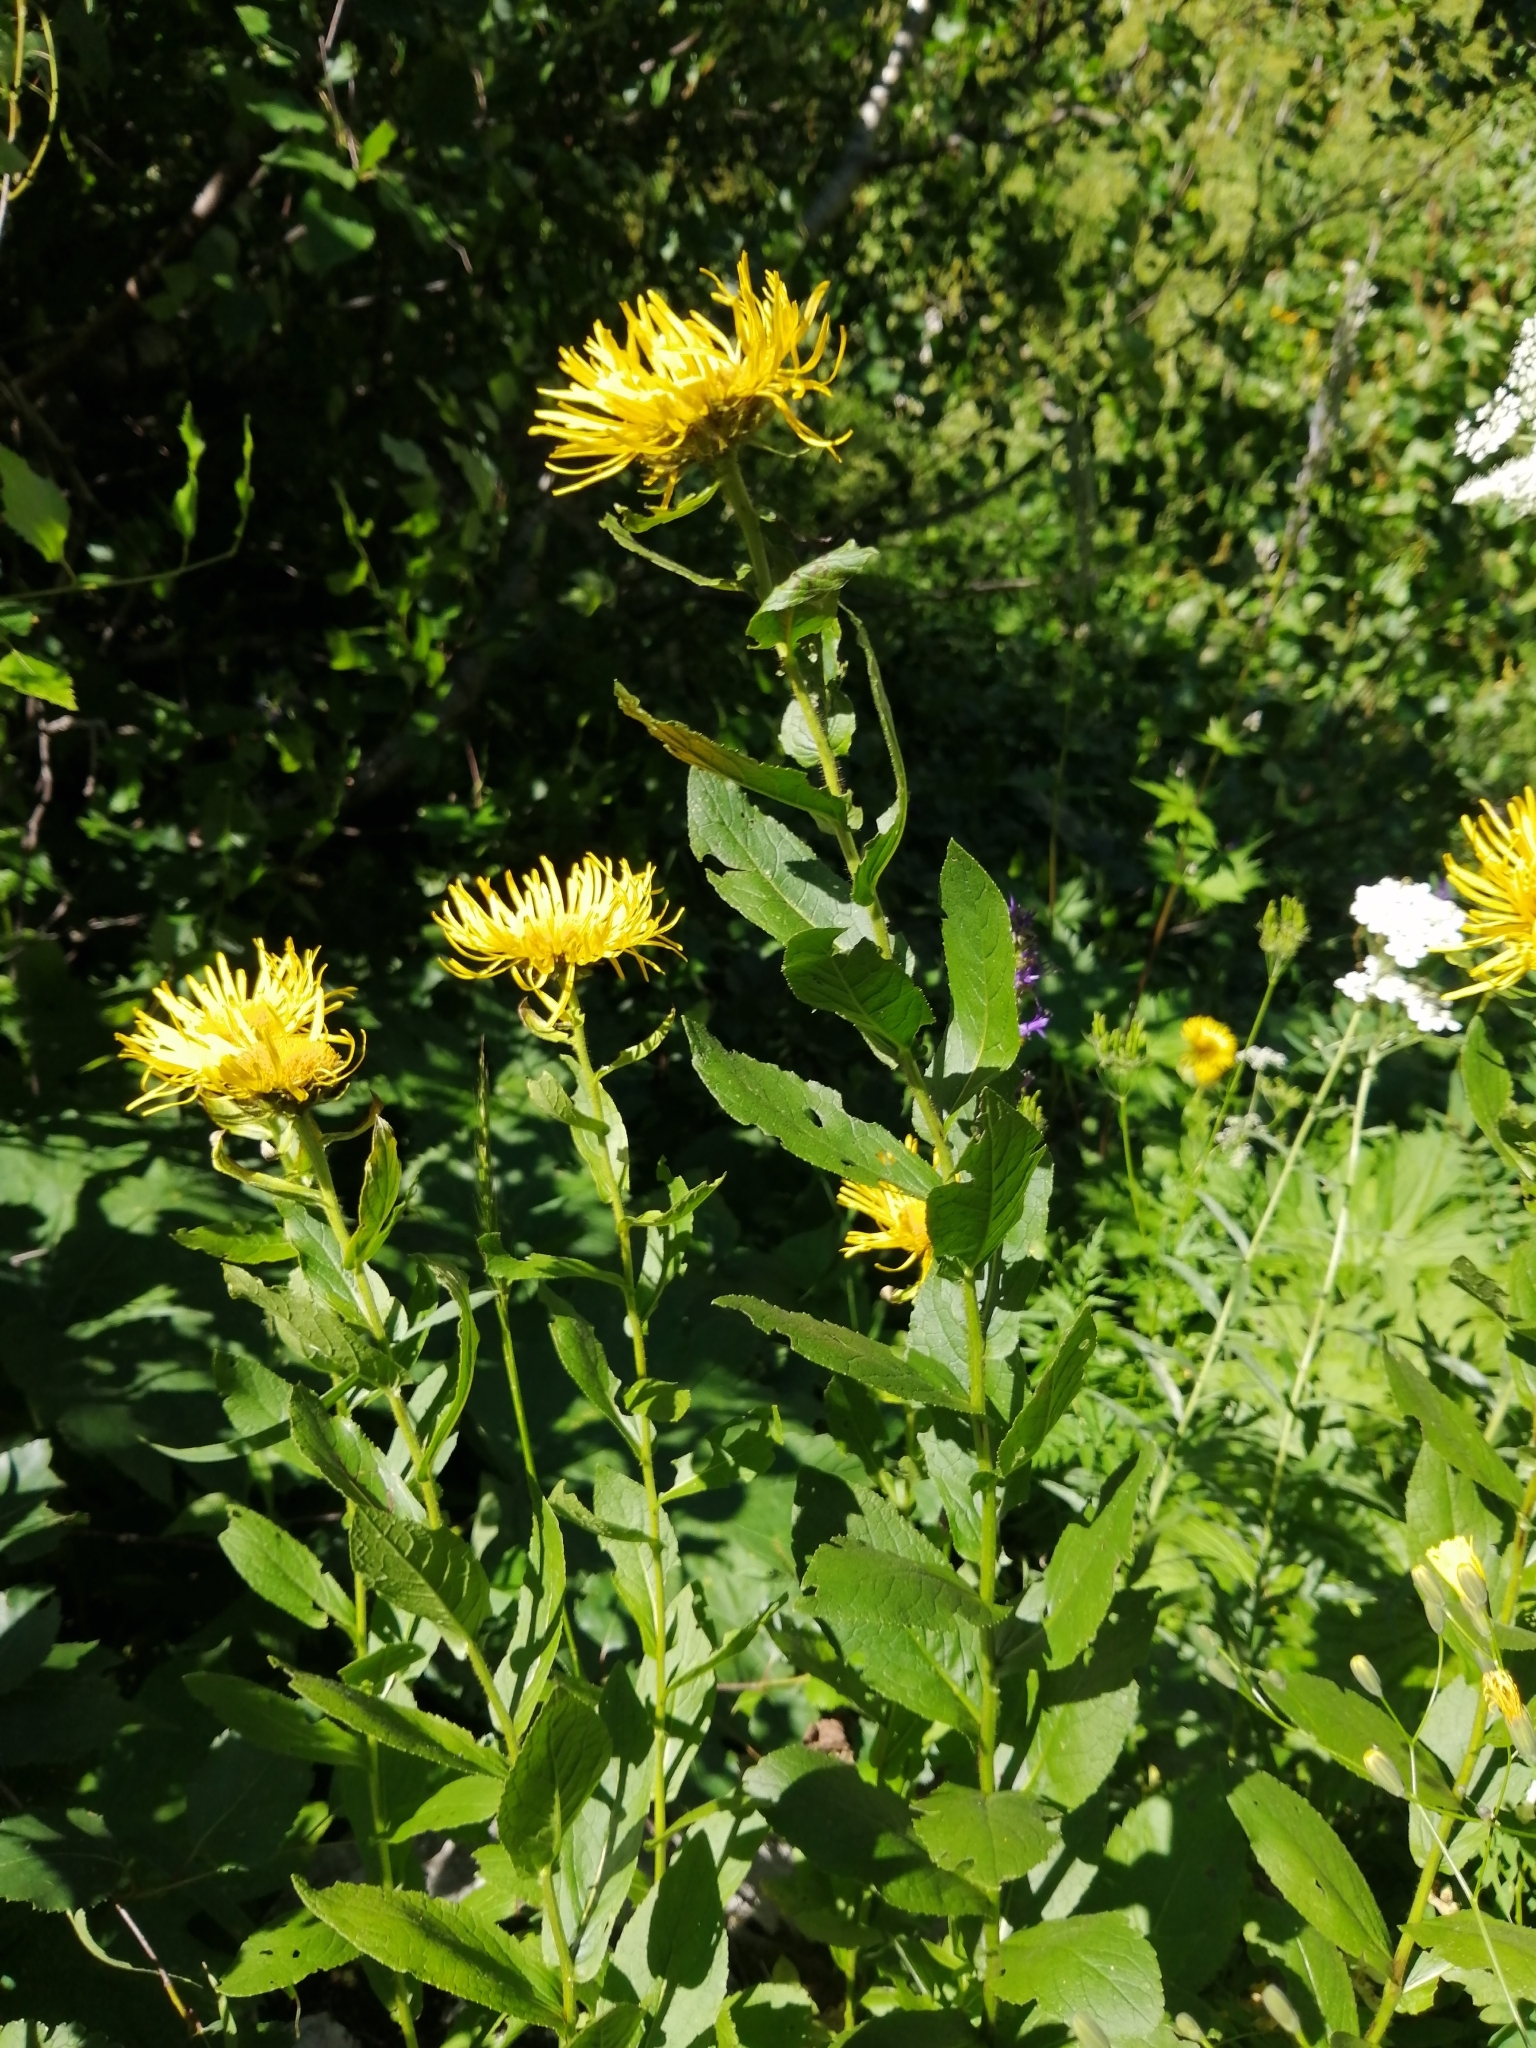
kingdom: Plantae
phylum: Tracheophyta
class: Magnoliopsida
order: Asterales
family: Asteraceae
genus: Pentanema
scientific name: Pentanema orientale
